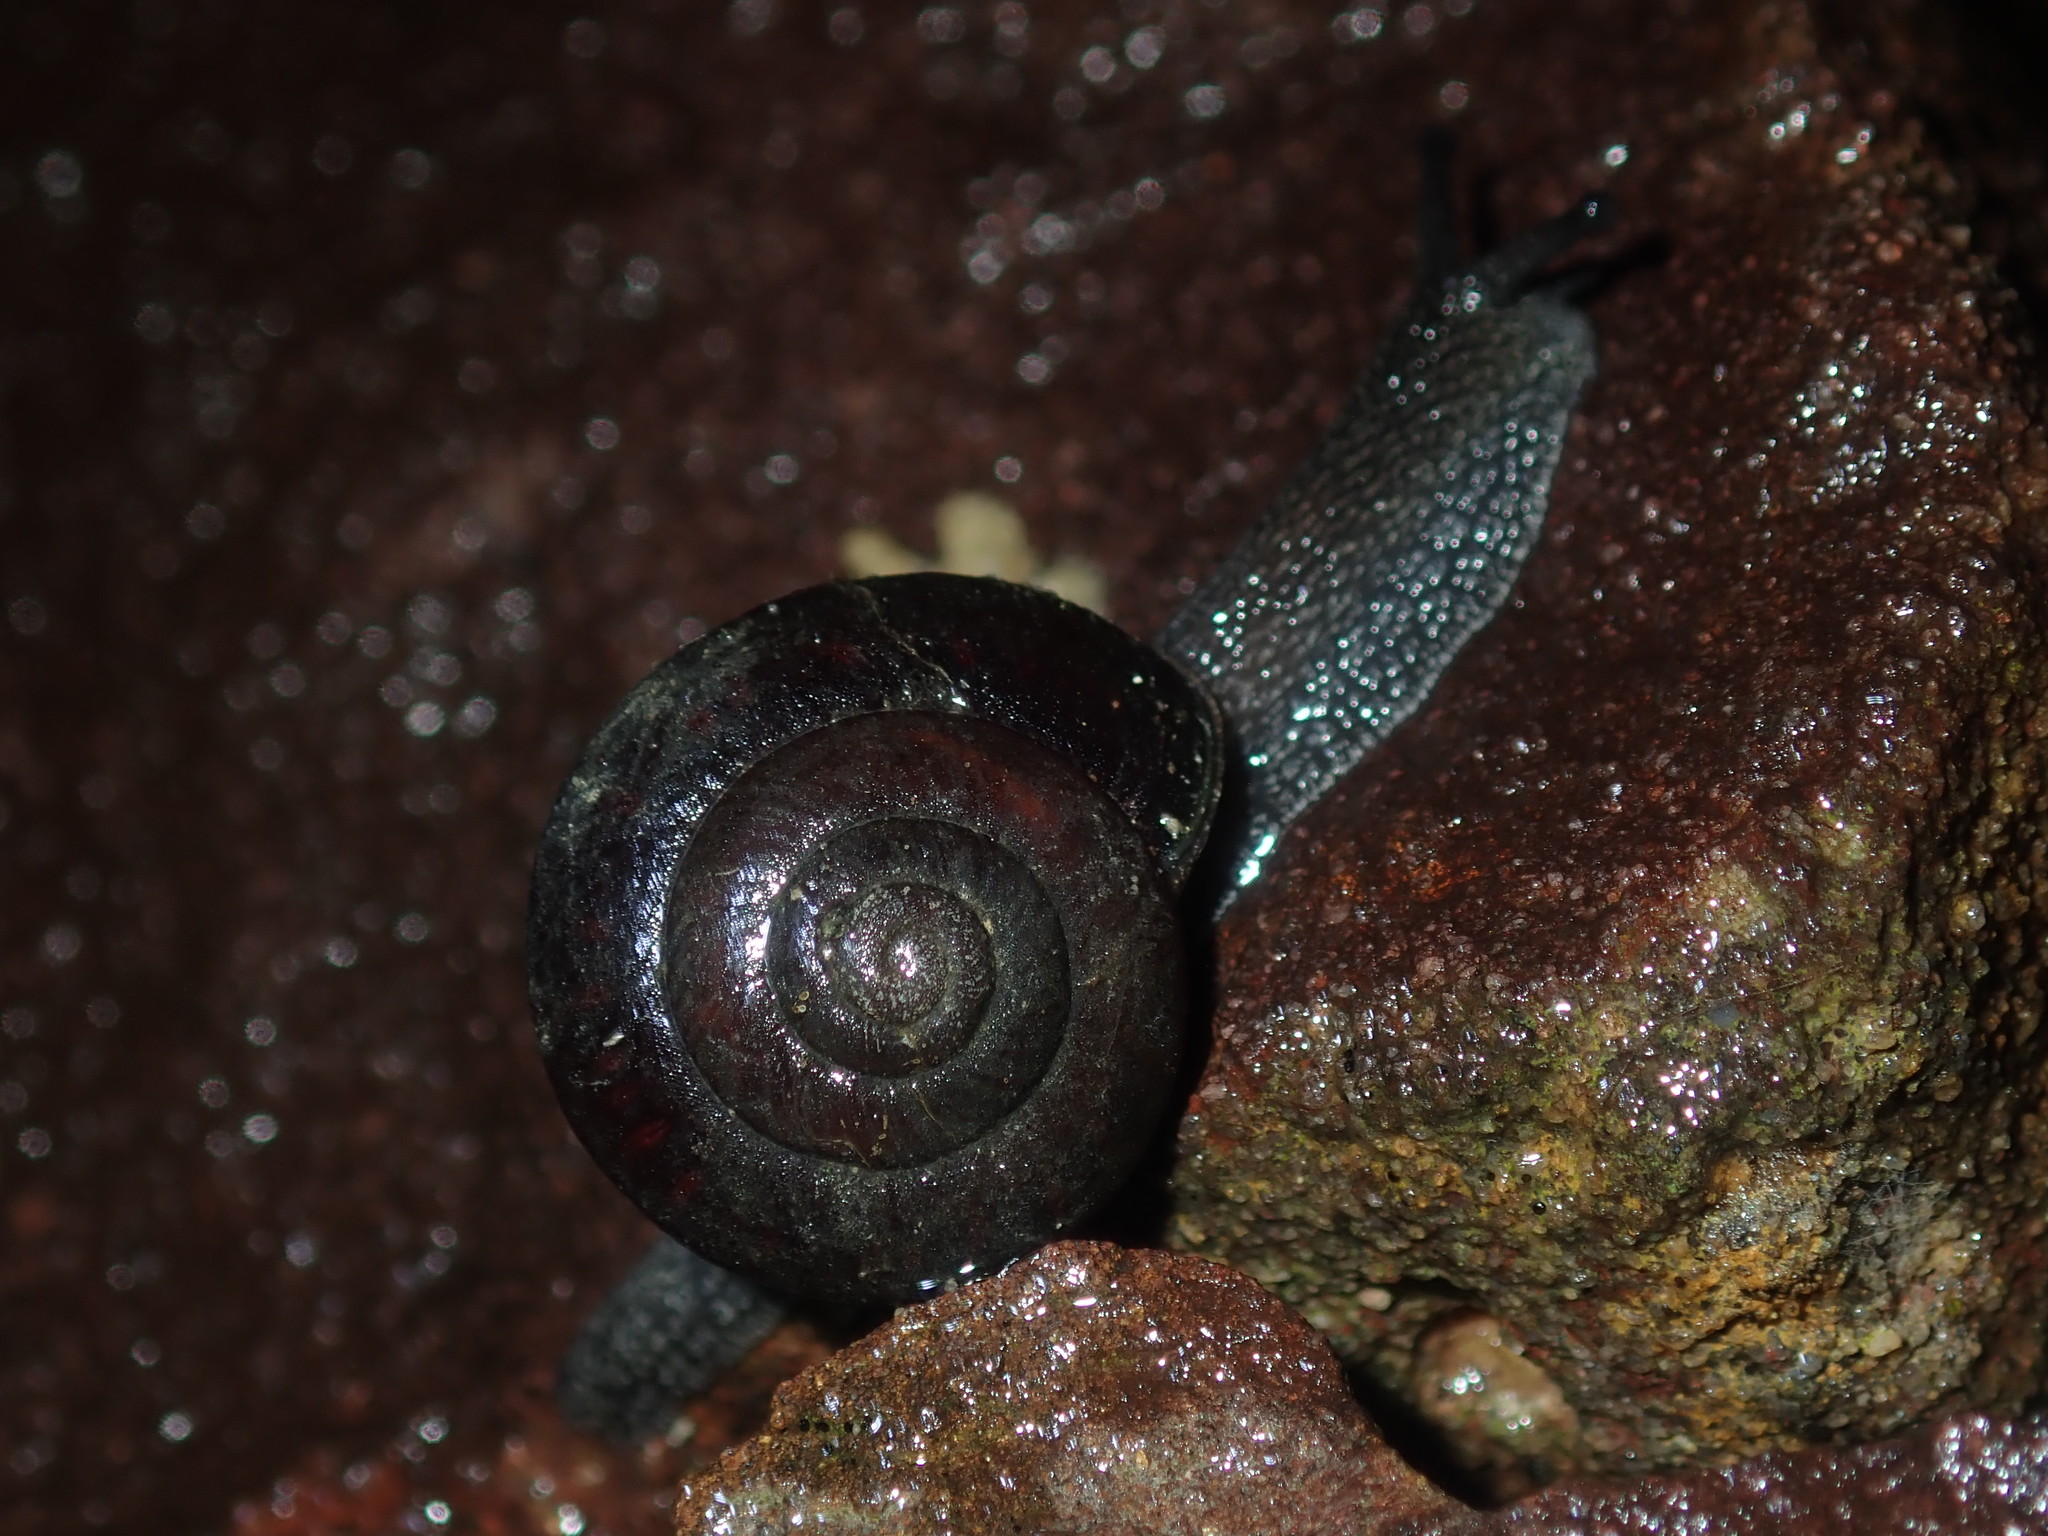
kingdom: Animalia
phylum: Mollusca
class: Gastropoda
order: Stylommatophora
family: Camaenidae
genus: Pommerhelix
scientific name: Pommerhelix monacha
